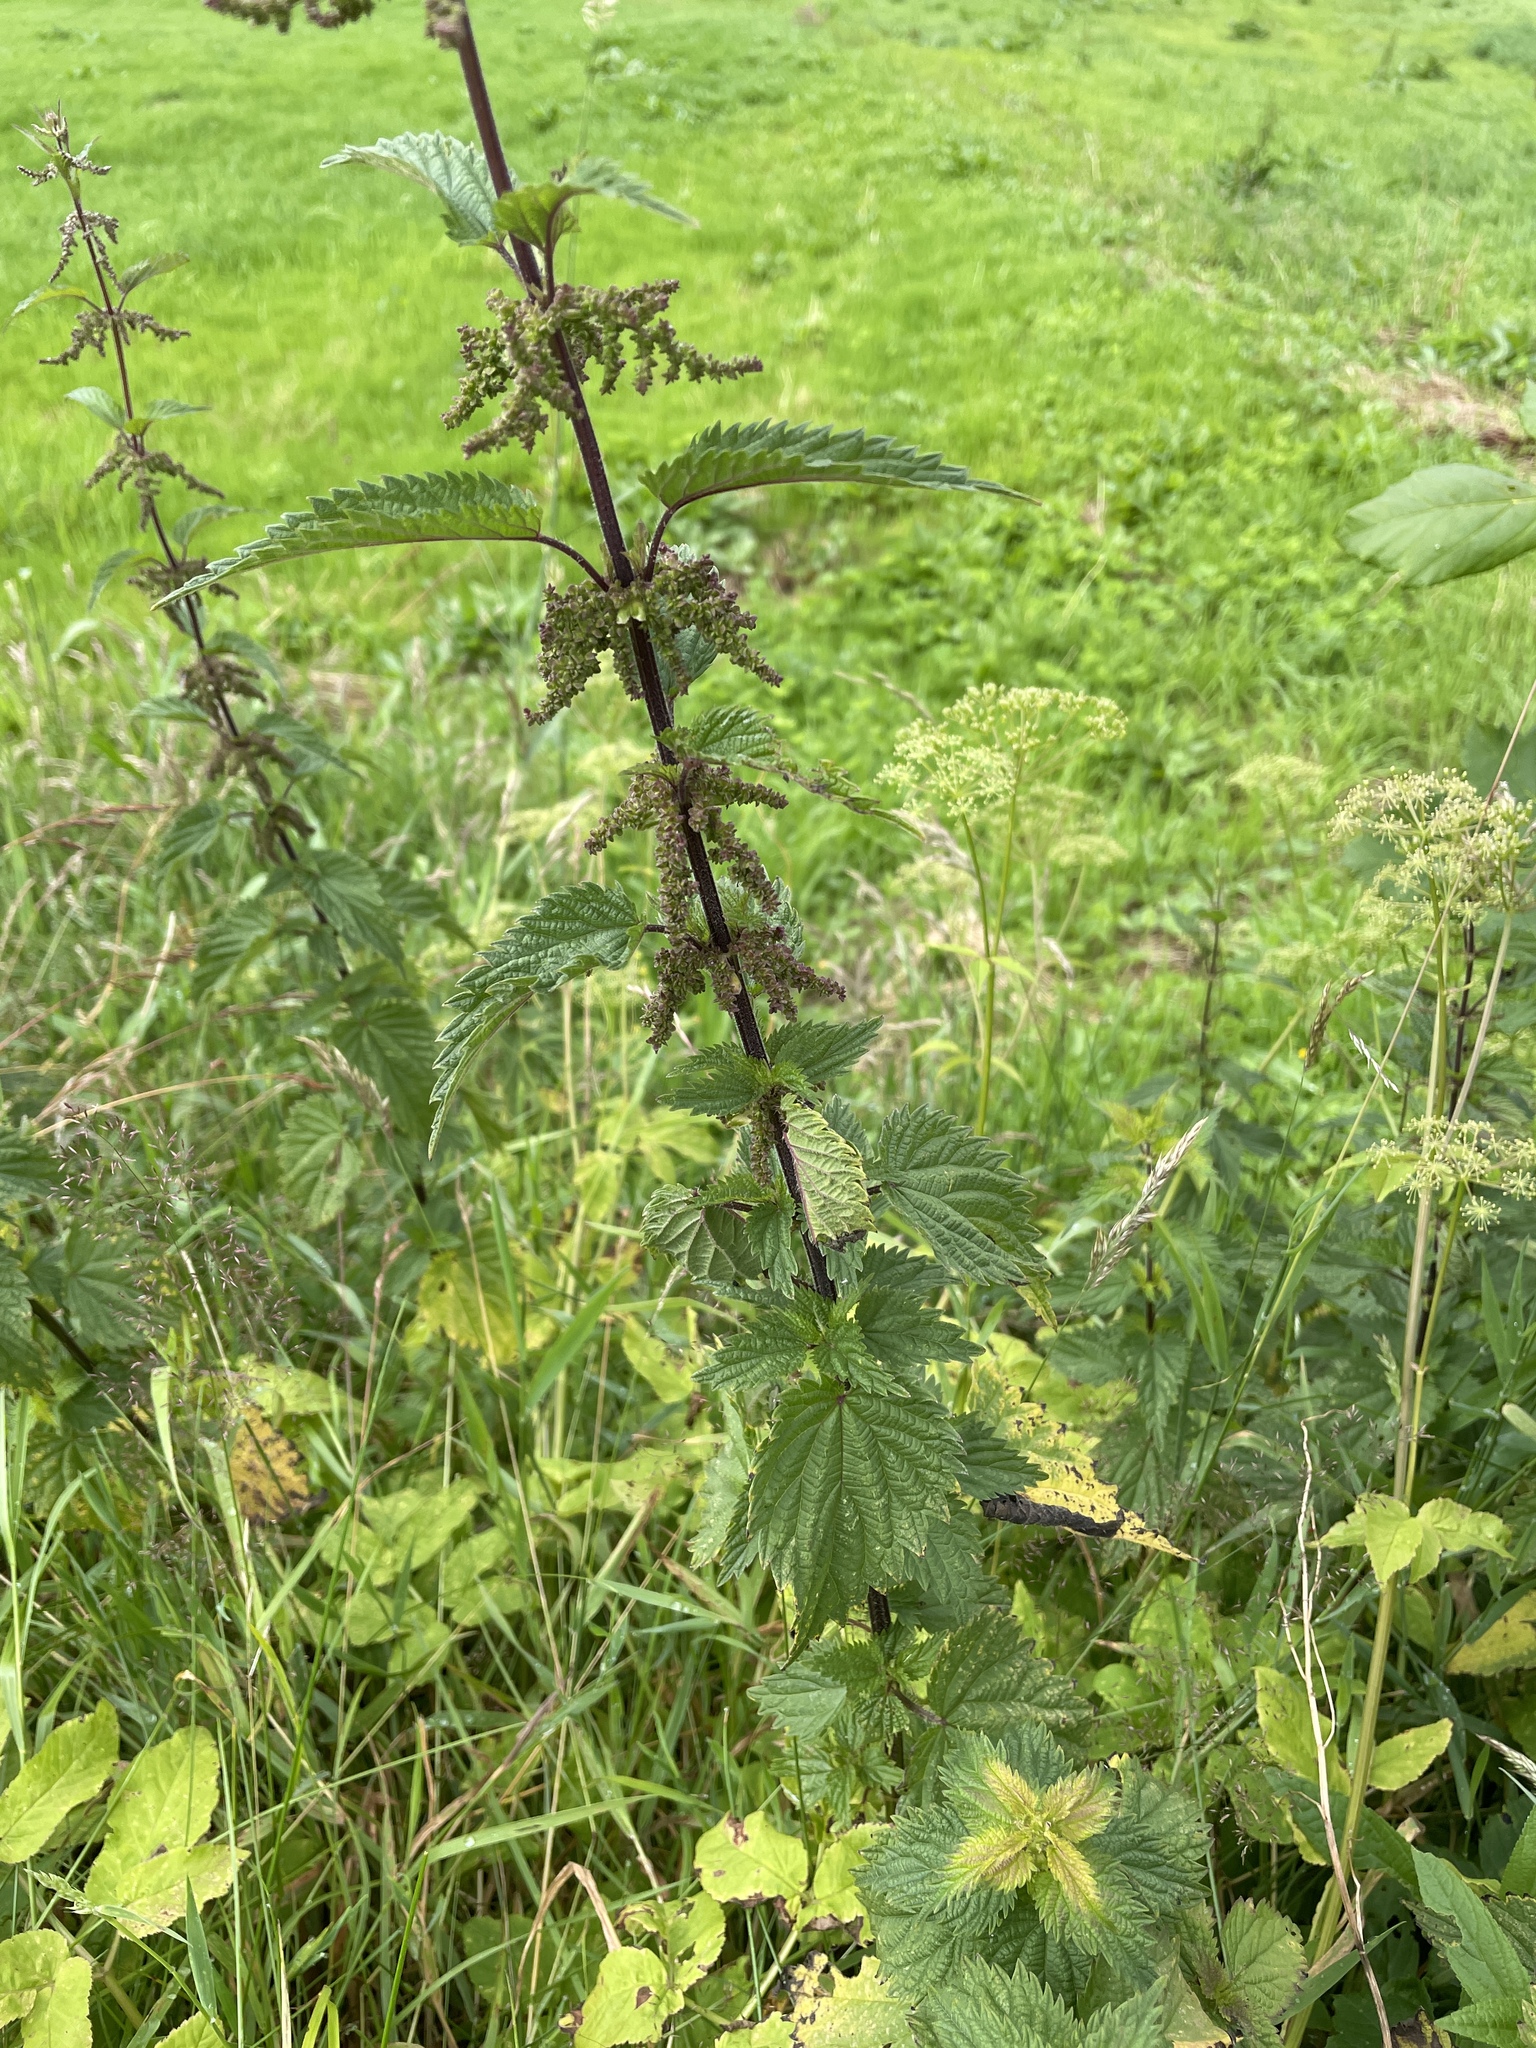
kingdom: Plantae
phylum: Tracheophyta
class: Magnoliopsida
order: Rosales
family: Urticaceae
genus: Urtica
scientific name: Urtica dioica
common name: Common nettle
